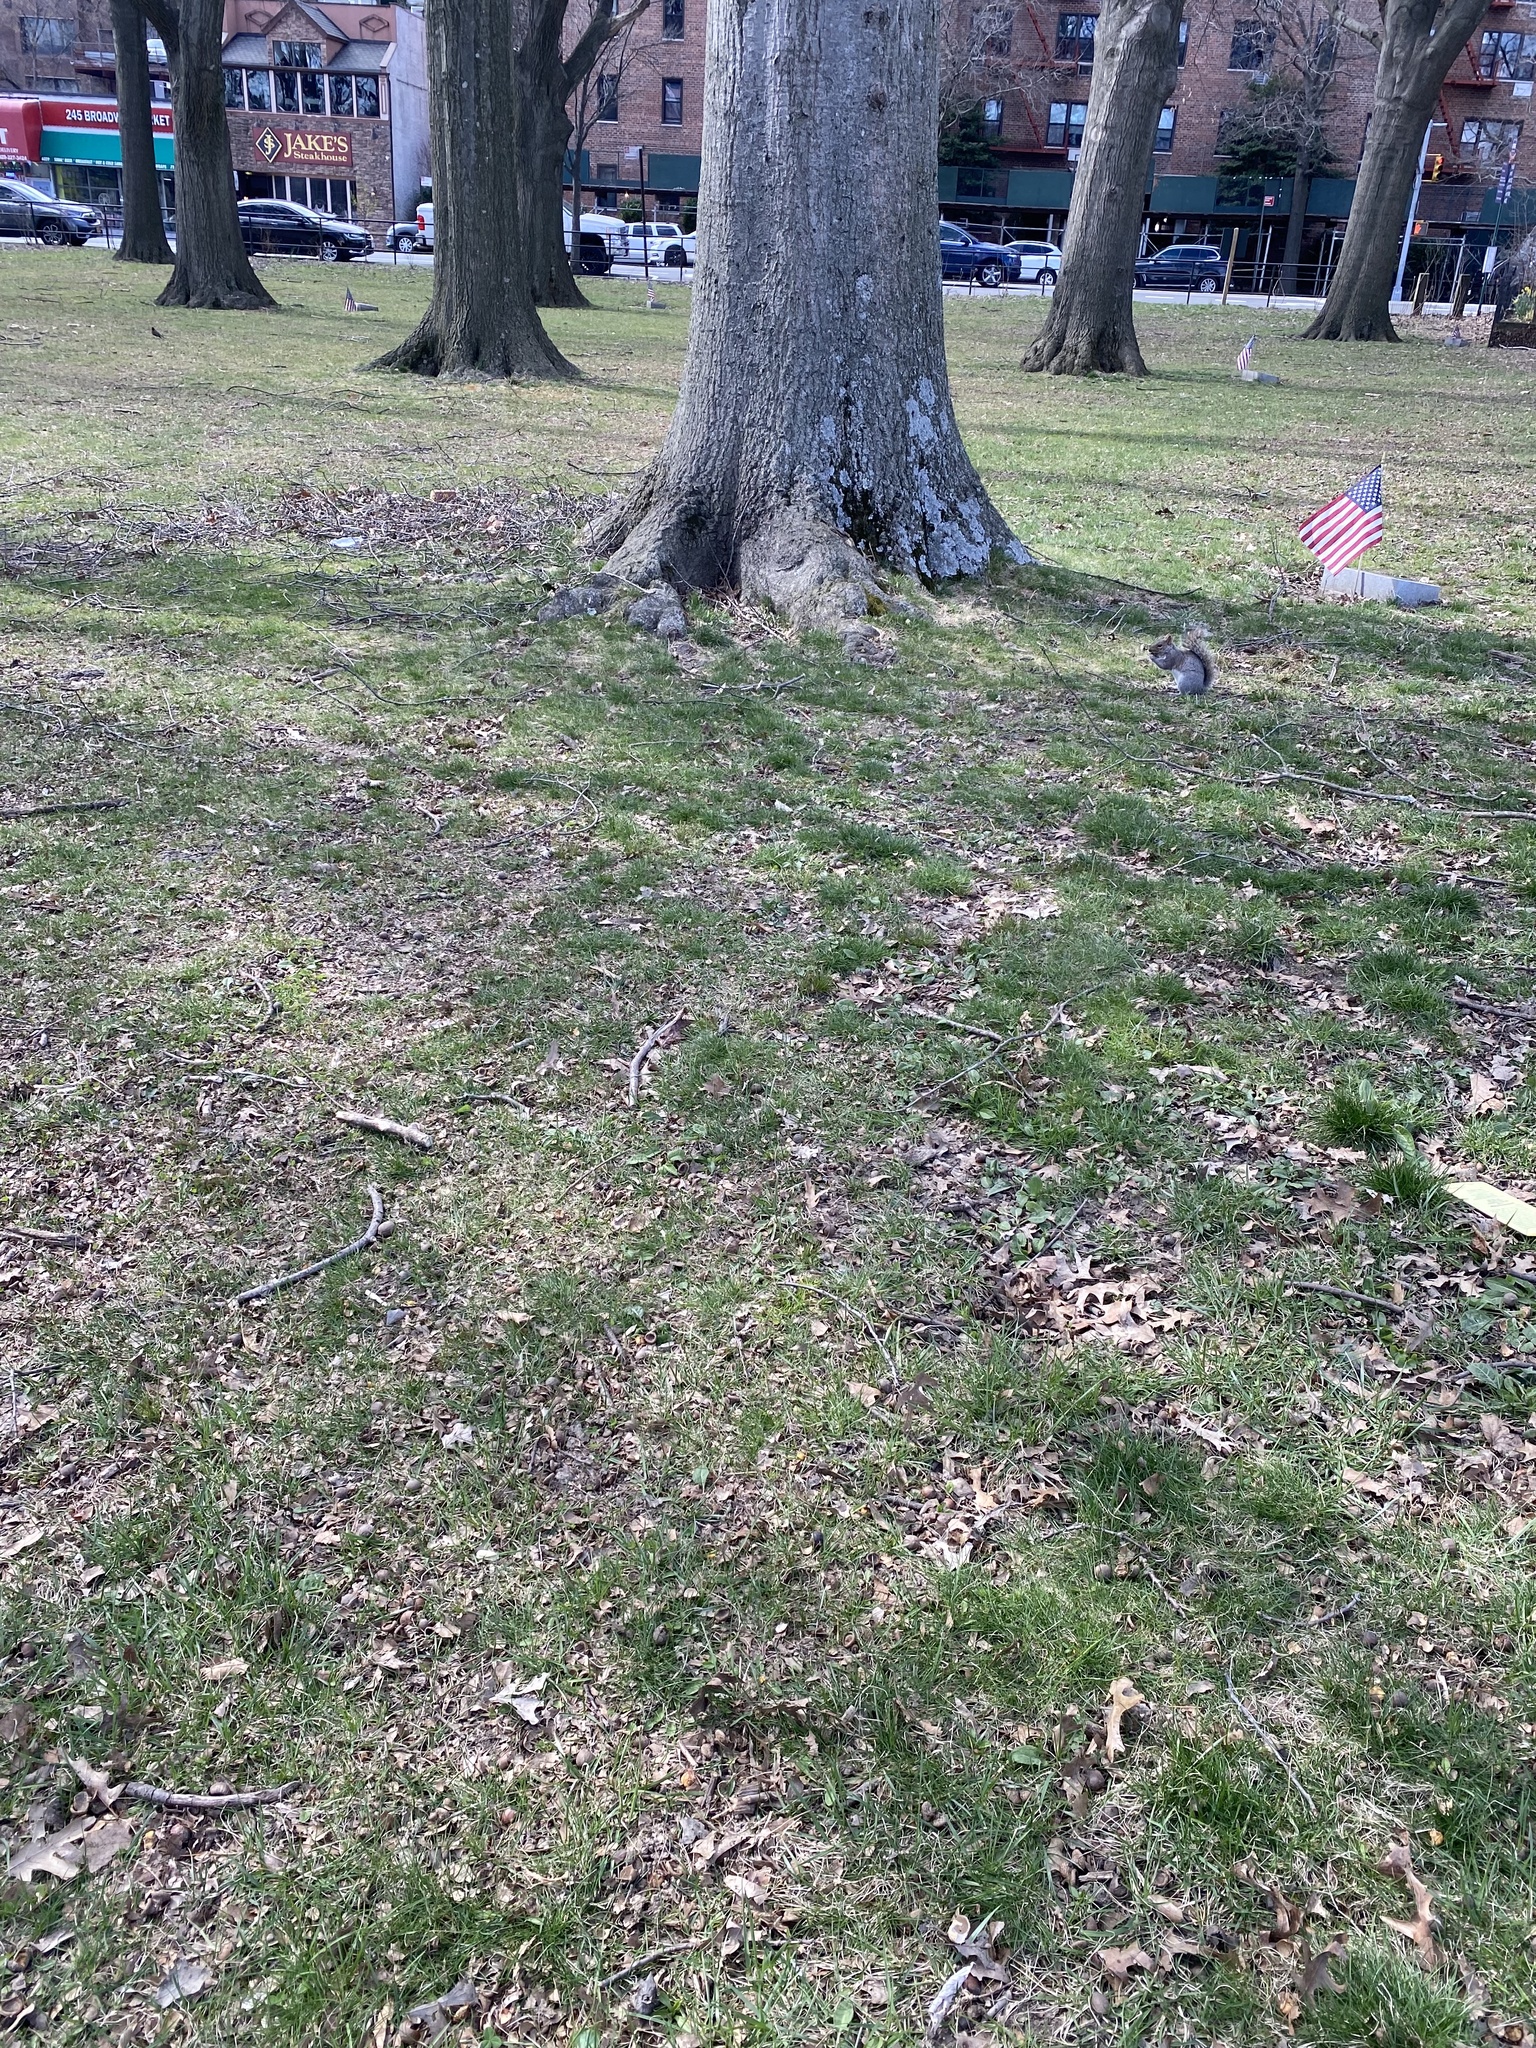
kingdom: Animalia
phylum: Chordata
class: Mammalia
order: Rodentia
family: Sciuridae
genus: Sciurus
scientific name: Sciurus carolinensis
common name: Eastern gray squirrel
